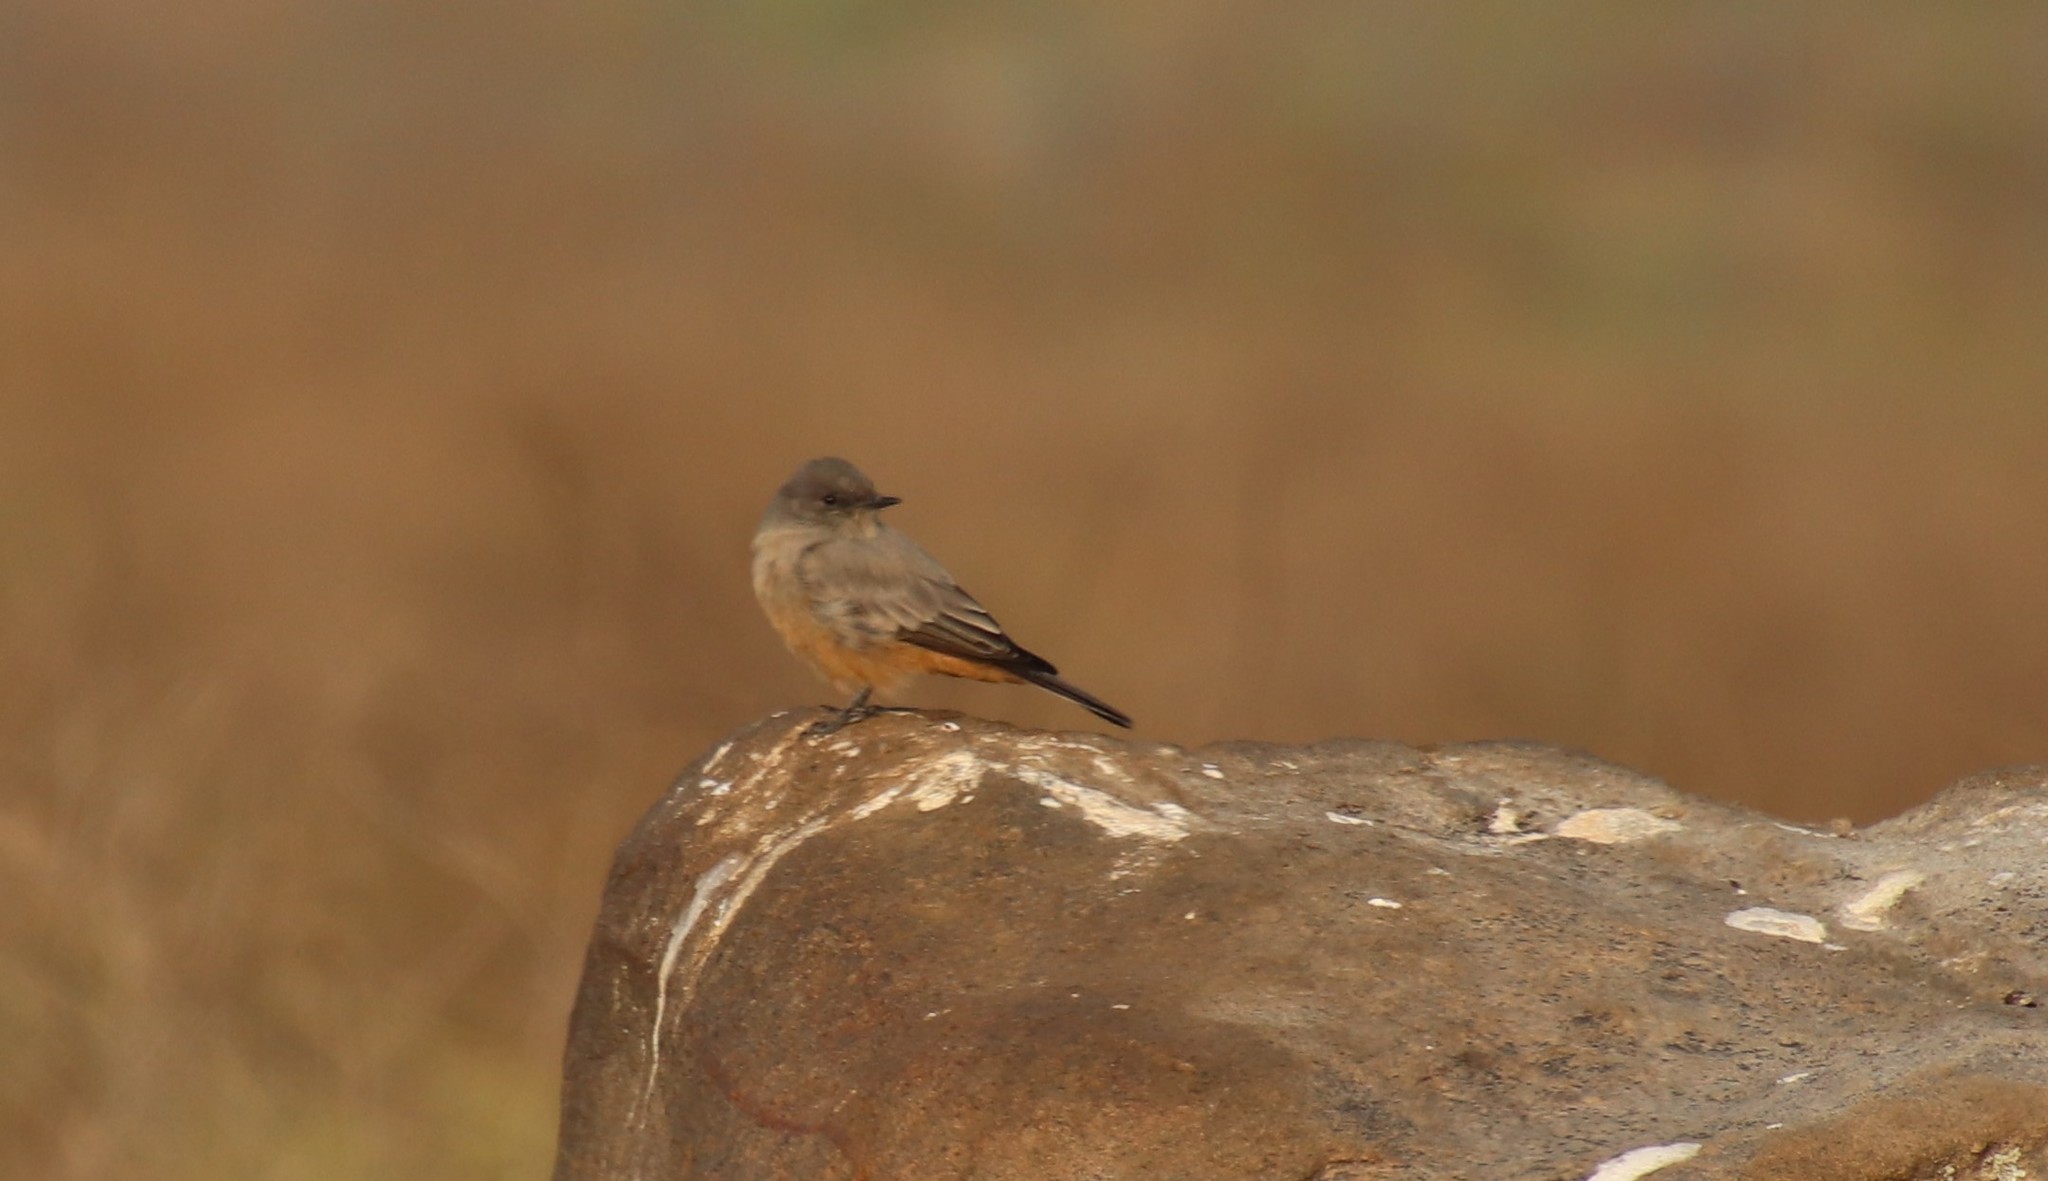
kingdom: Animalia
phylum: Chordata
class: Aves
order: Passeriformes
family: Tyrannidae
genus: Sayornis
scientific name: Sayornis saya
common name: Say's phoebe
